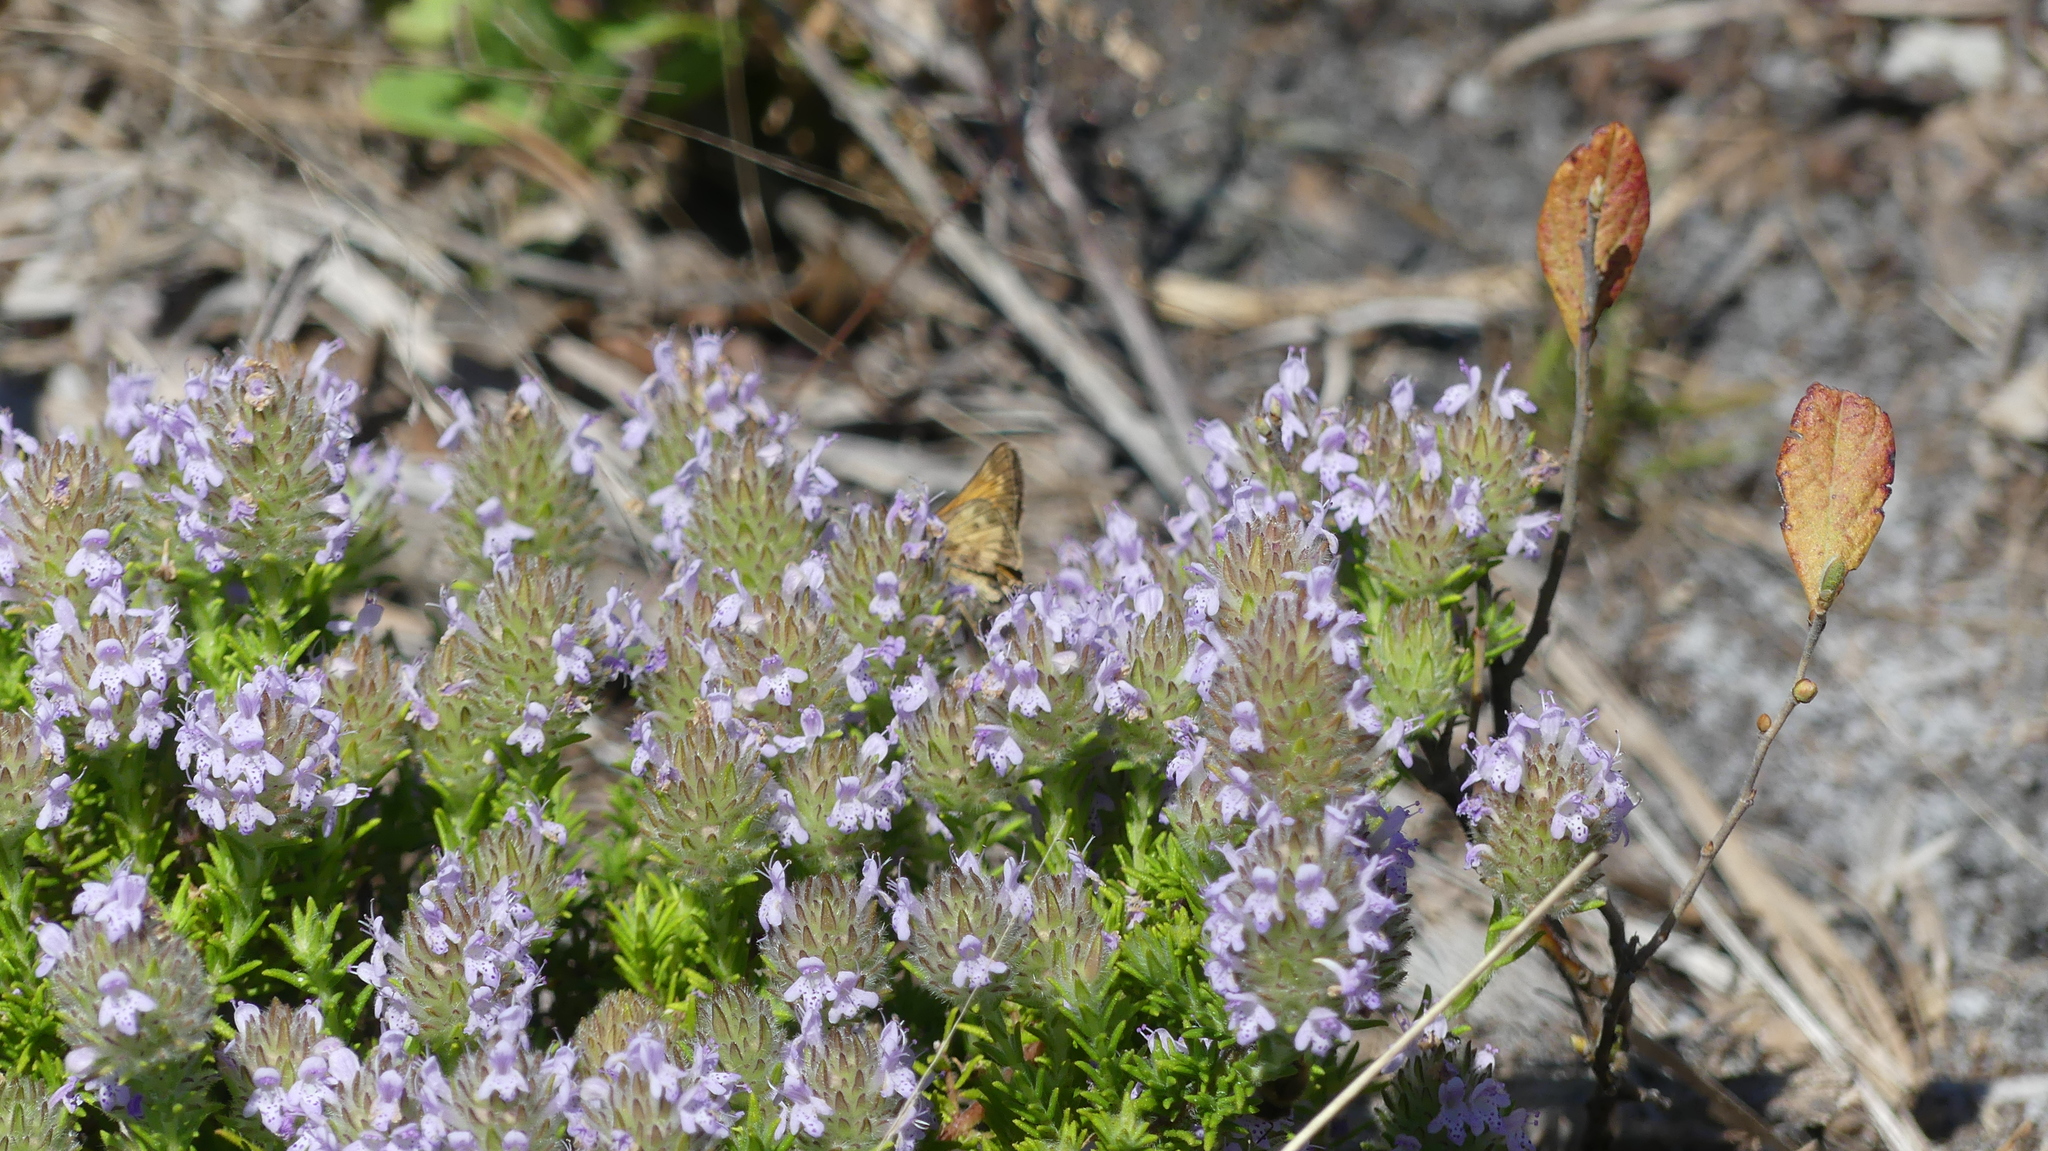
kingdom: Animalia
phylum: Arthropoda
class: Insecta
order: Lepidoptera
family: Hesperiidae
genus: Atalopedes
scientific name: Atalopedes
